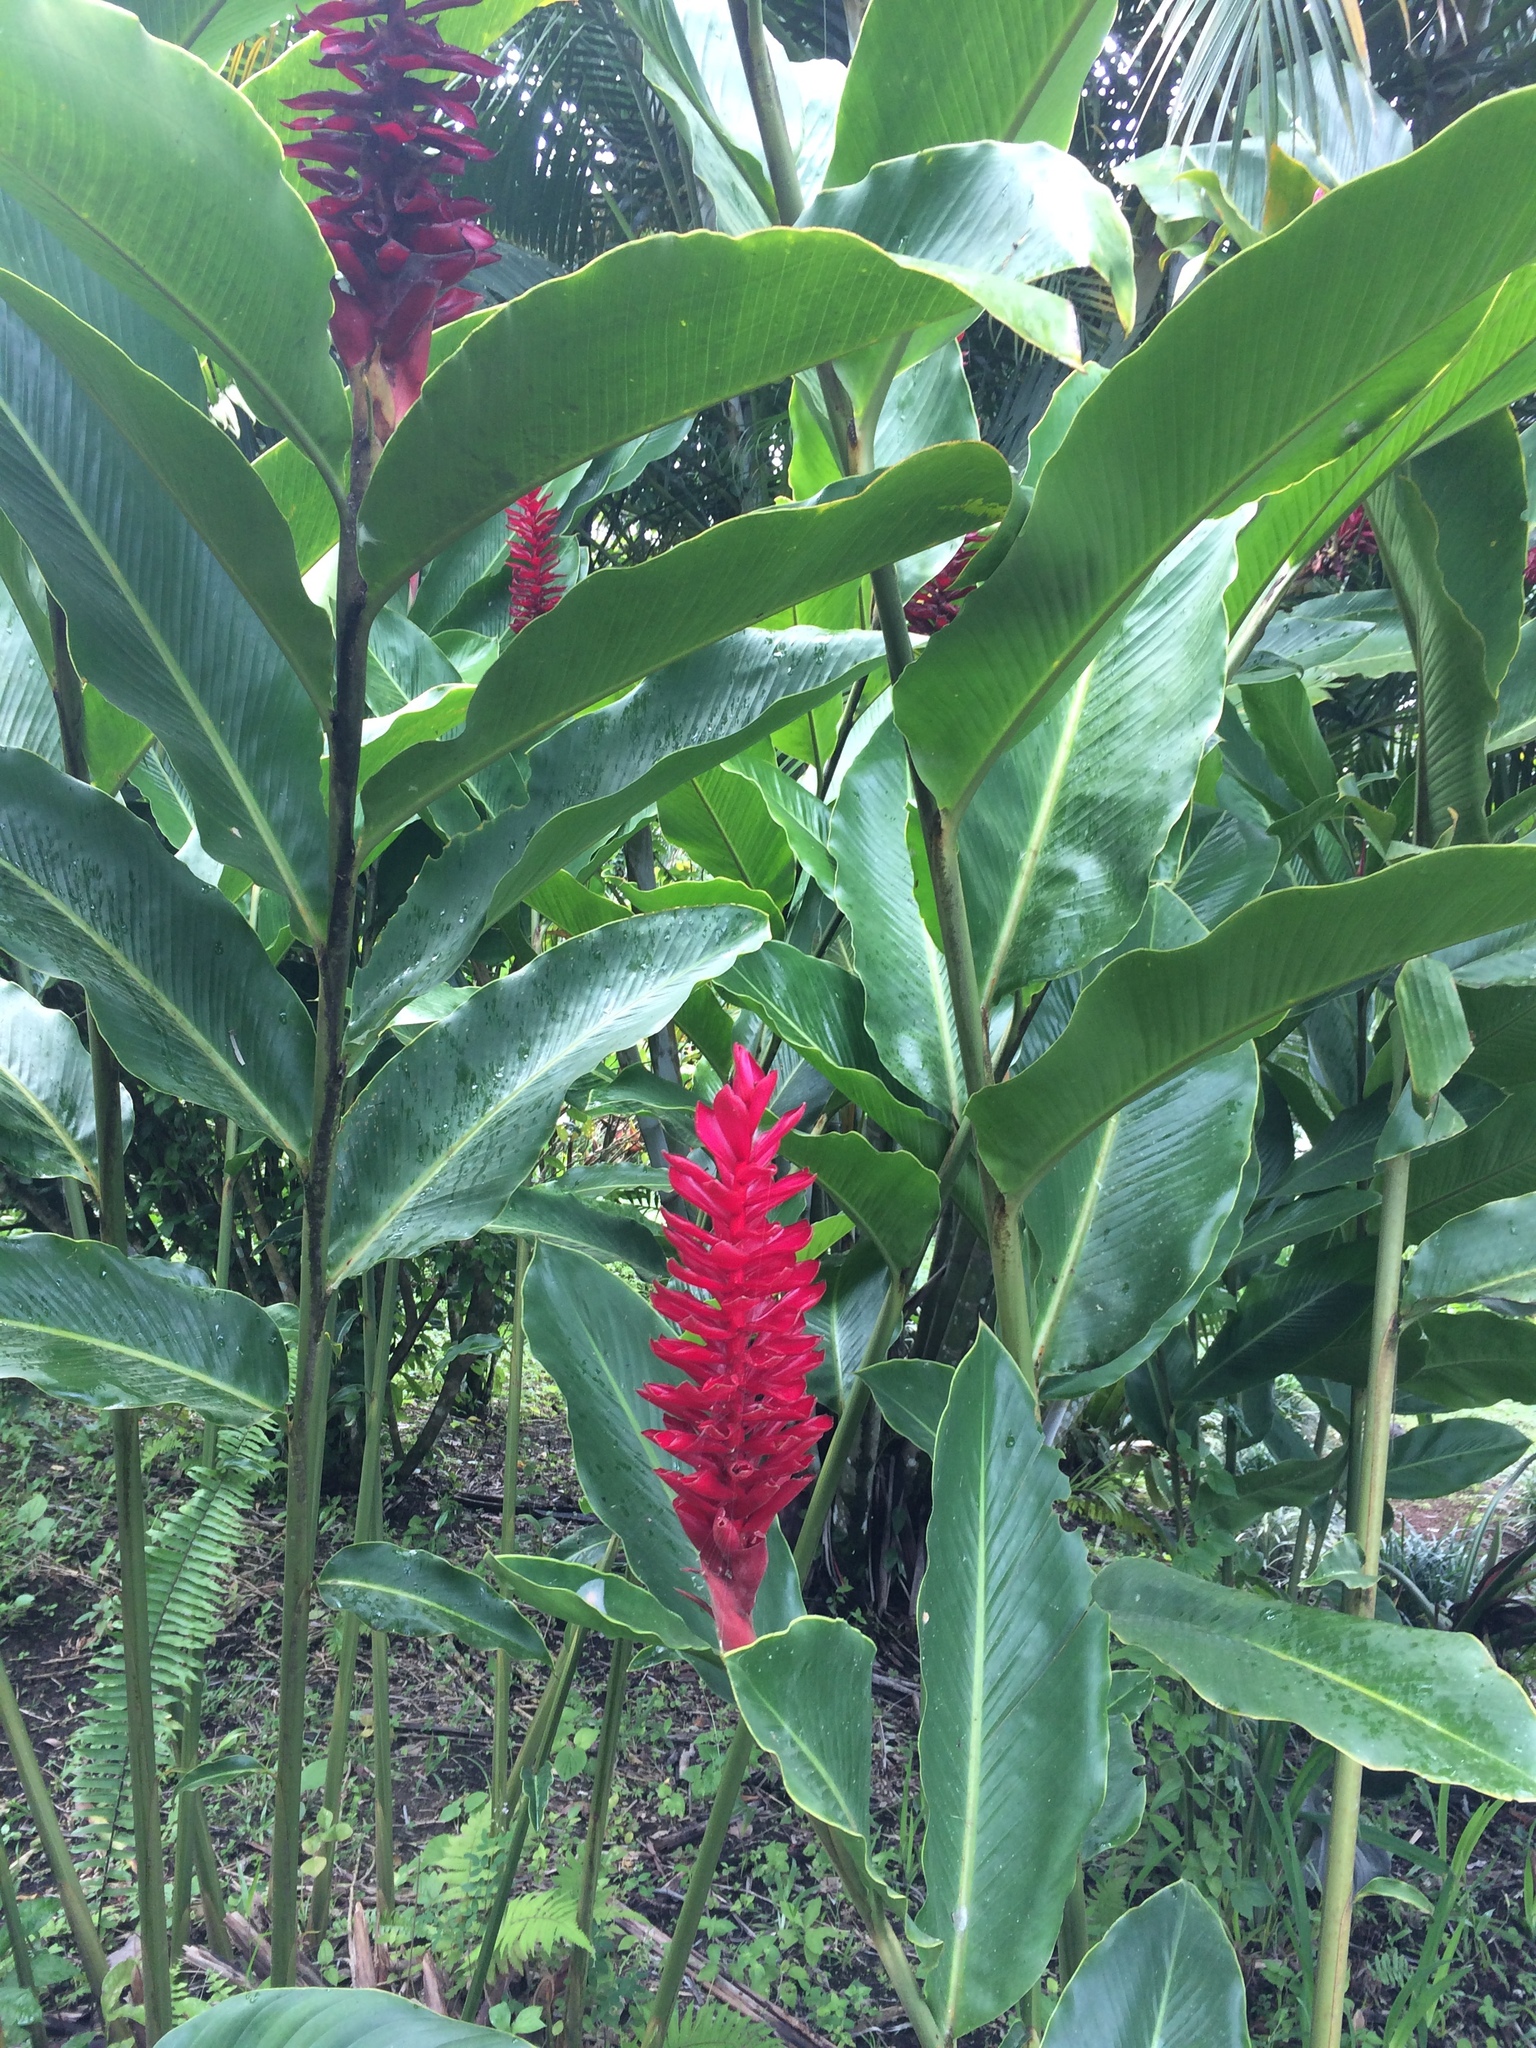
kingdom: Plantae
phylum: Tracheophyta
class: Liliopsida
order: Zingiberales
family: Zingiberaceae
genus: Alpinia
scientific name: Alpinia purpurata
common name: Red ginger
